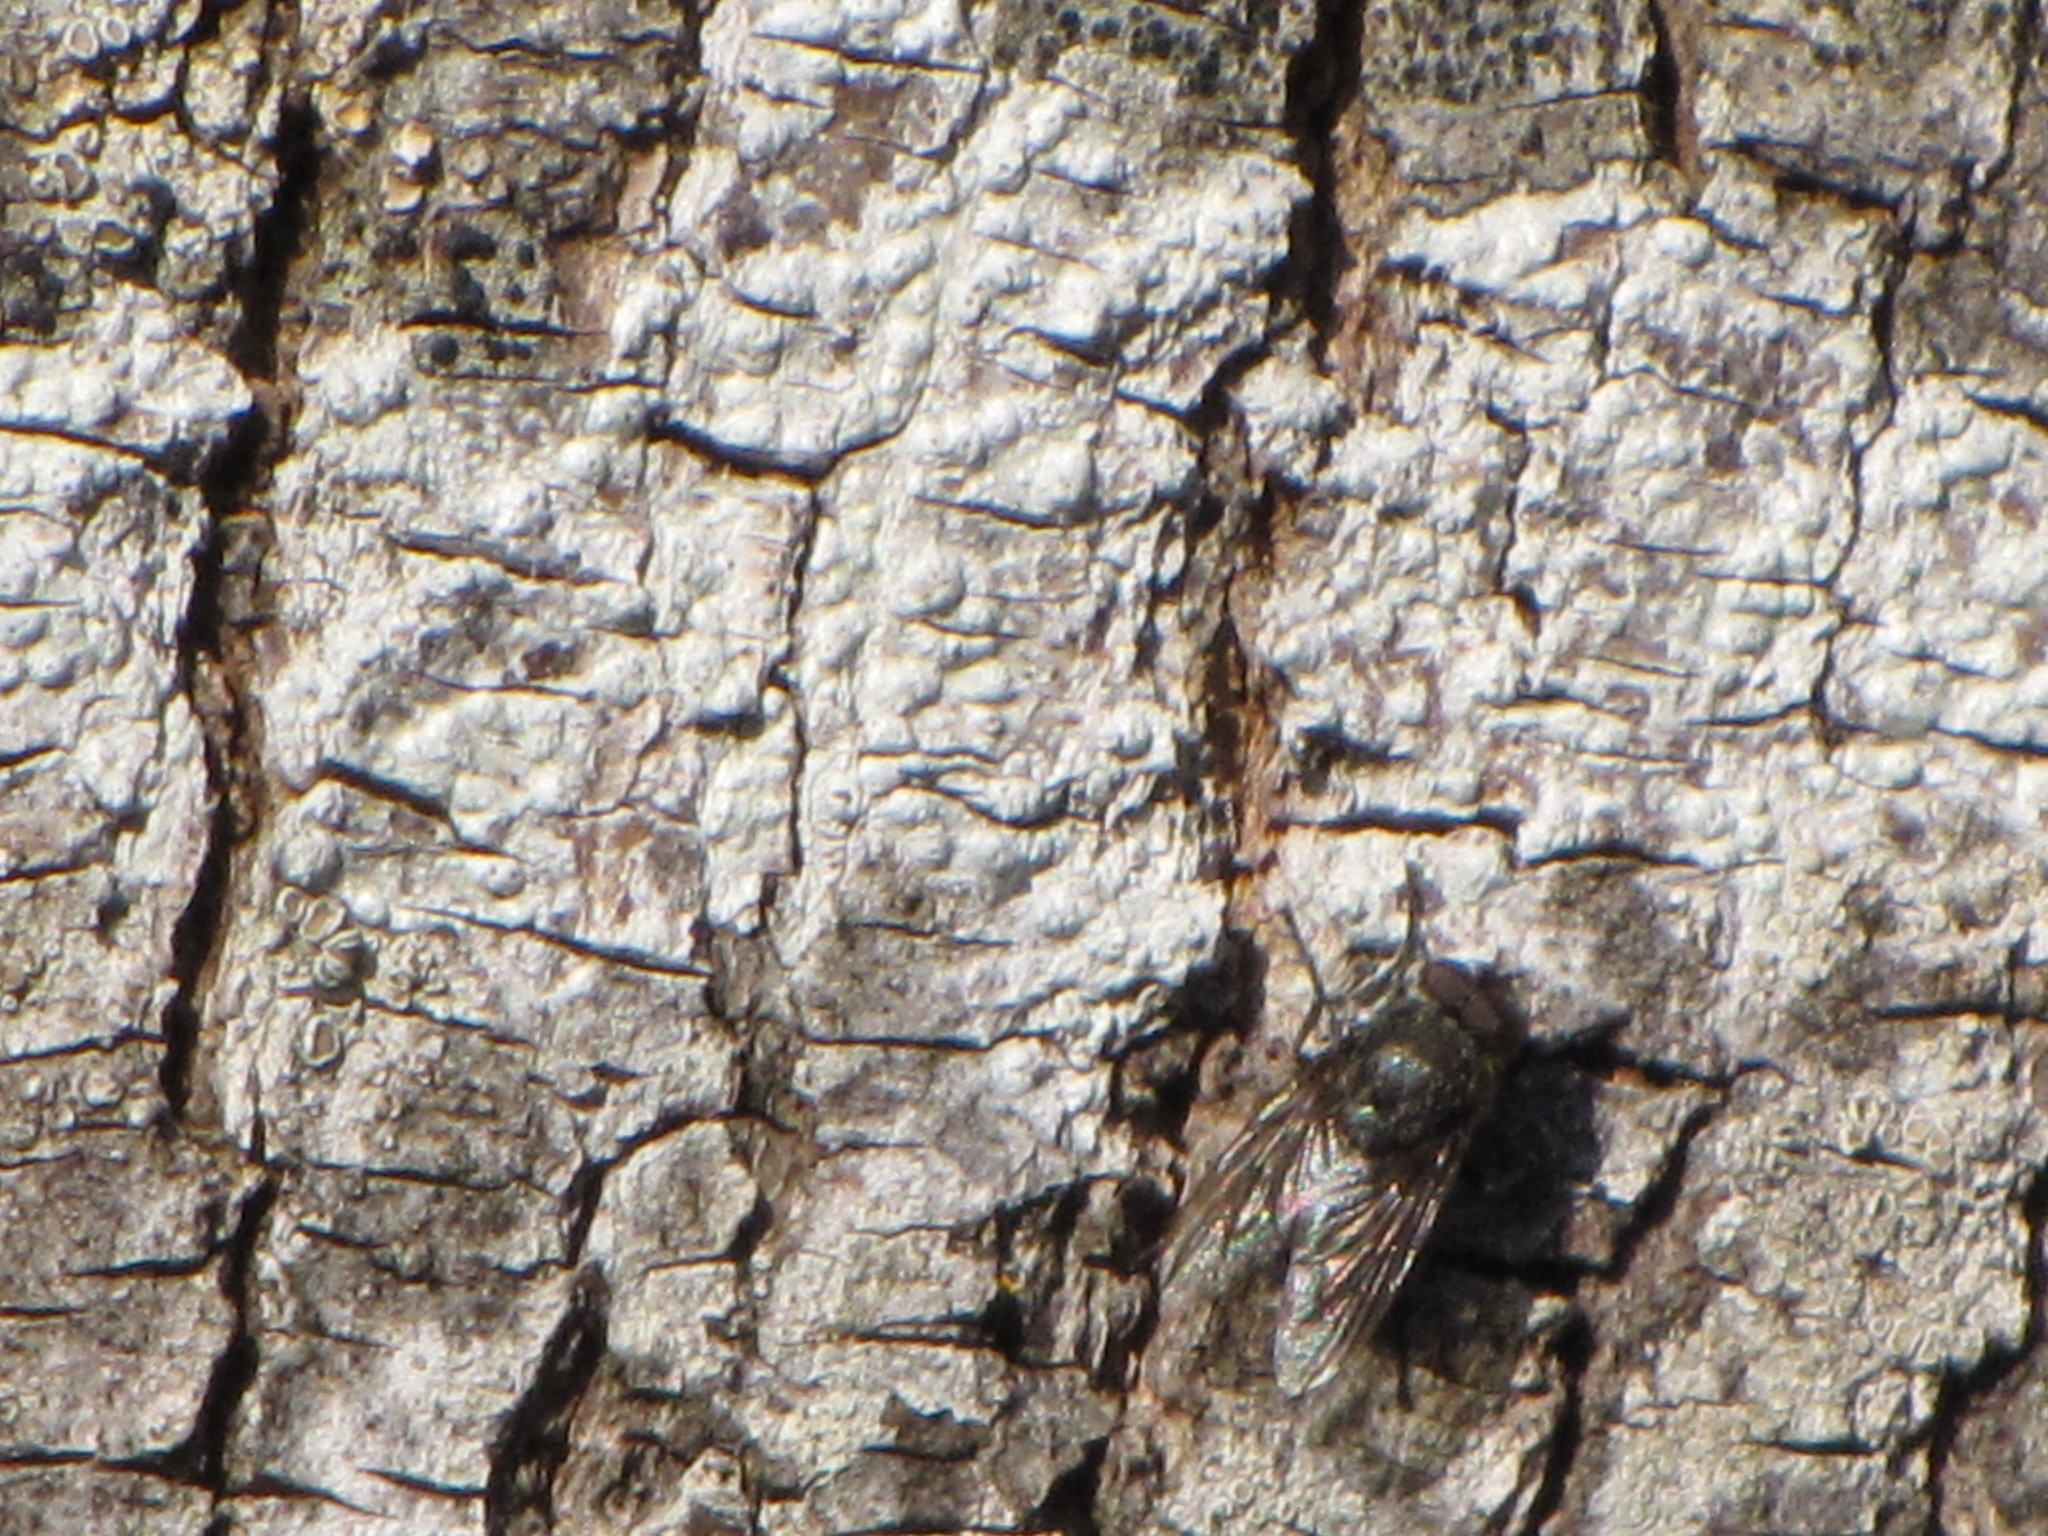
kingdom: Animalia
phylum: Arthropoda
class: Insecta
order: Diptera
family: Polleniidae
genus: Pollenia
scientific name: Pollenia
